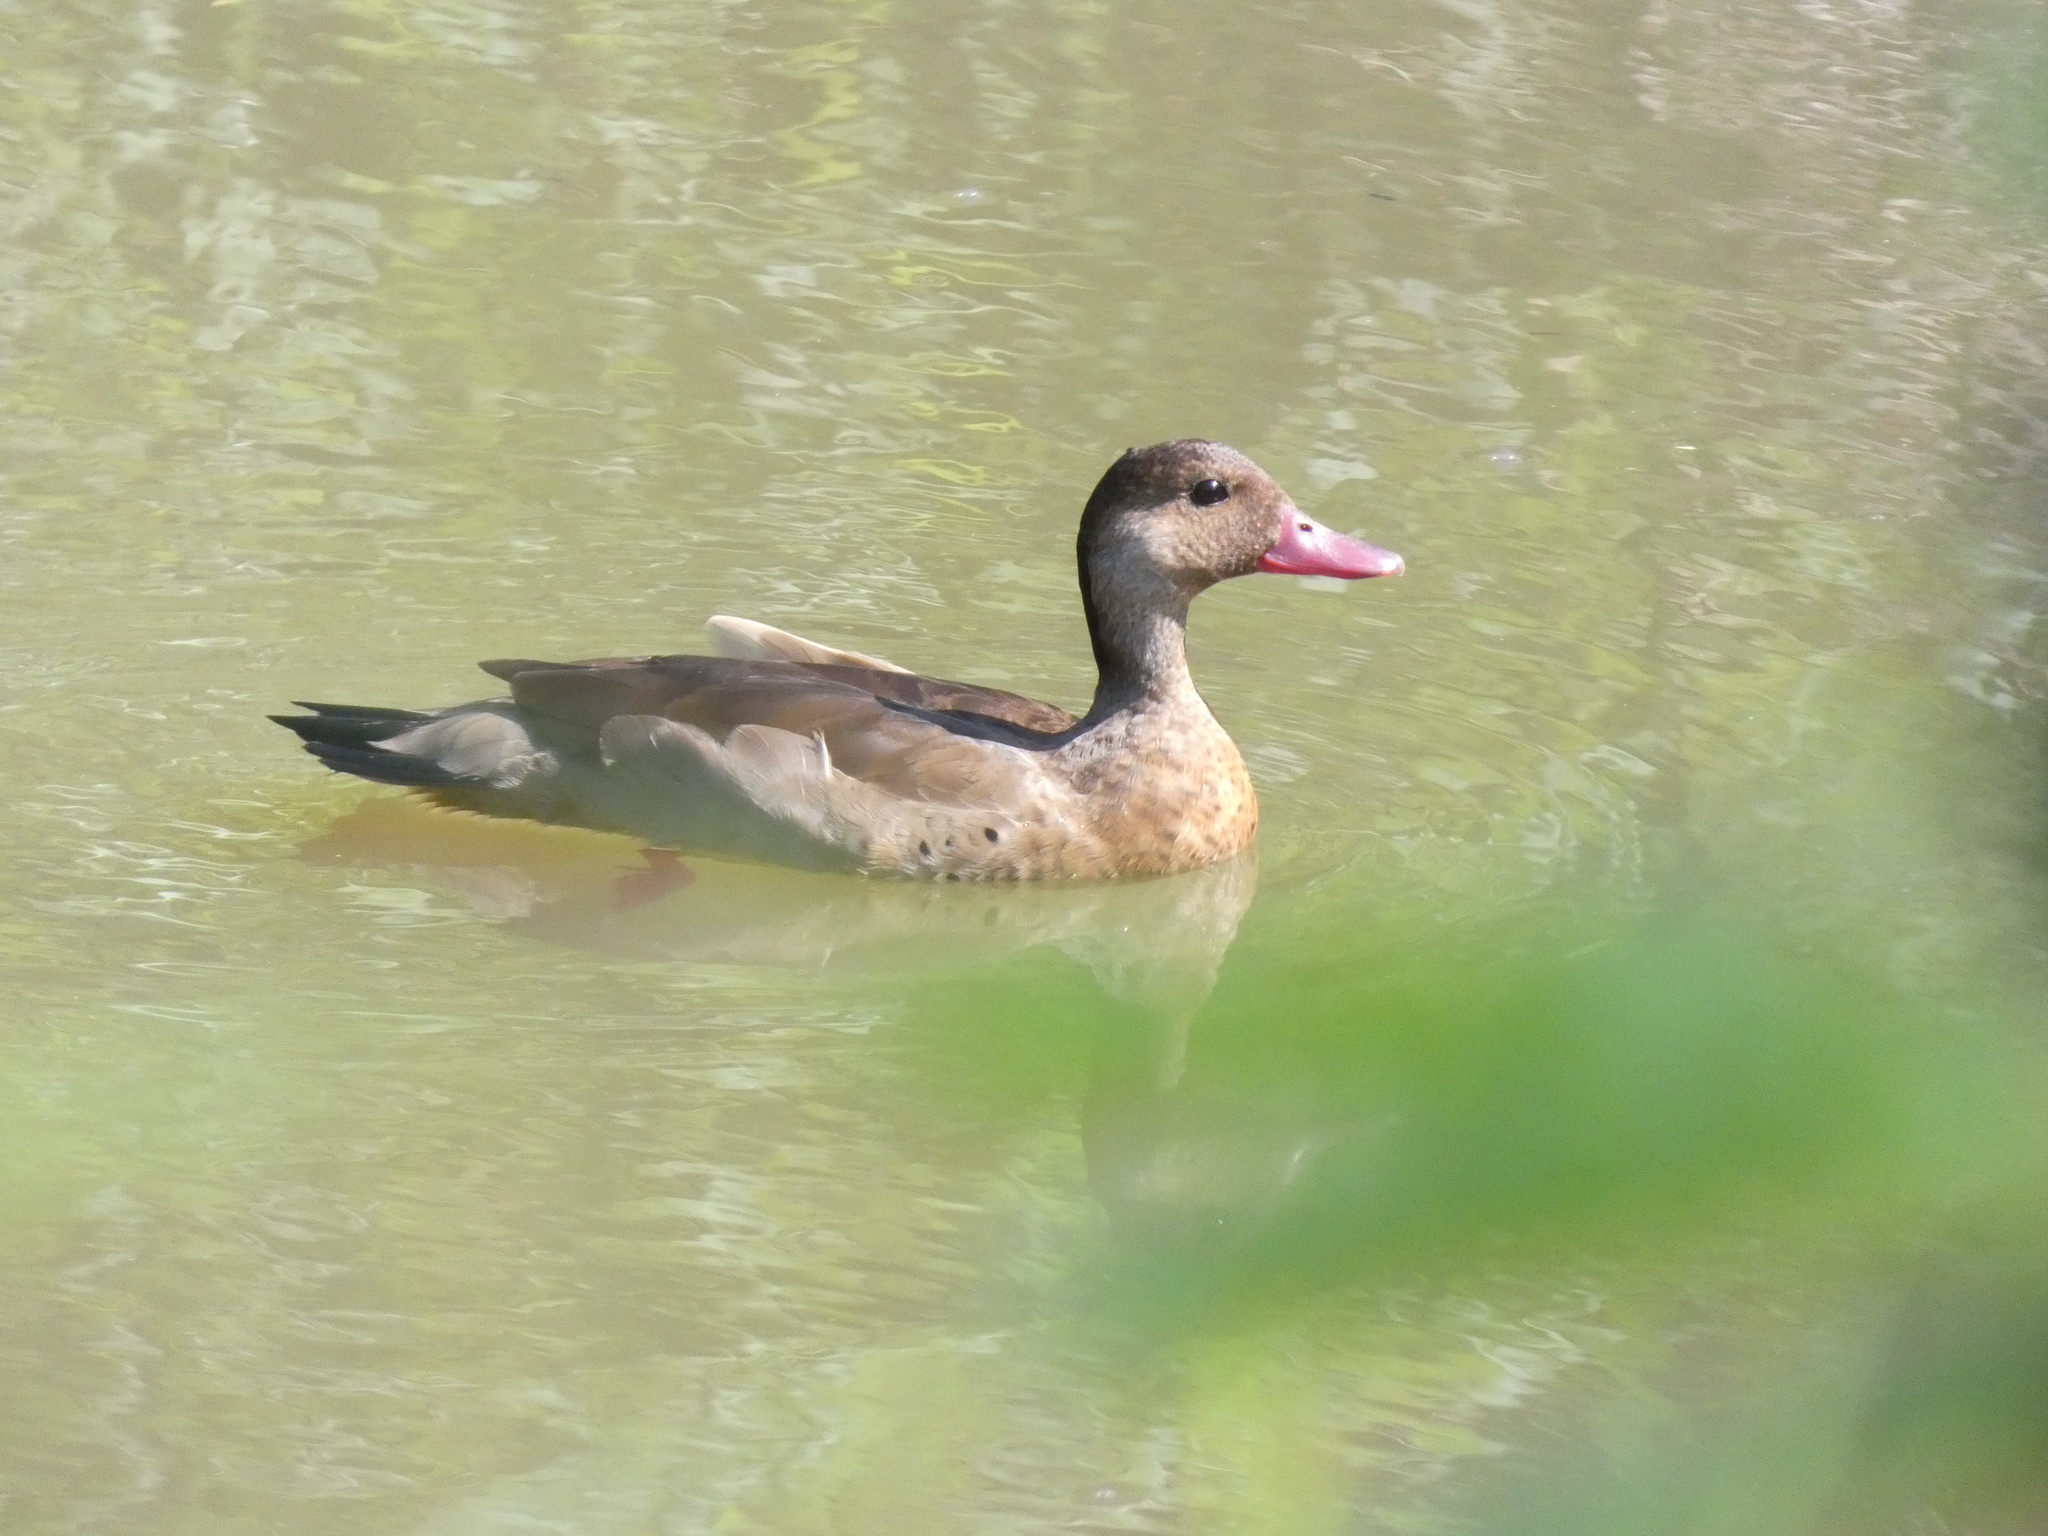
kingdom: Animalia
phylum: Chordata
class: Aves
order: Anseriformes
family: Anatidae
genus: Amazonetta
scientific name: Amazonetta brasiliensis
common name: Brazilian teal
